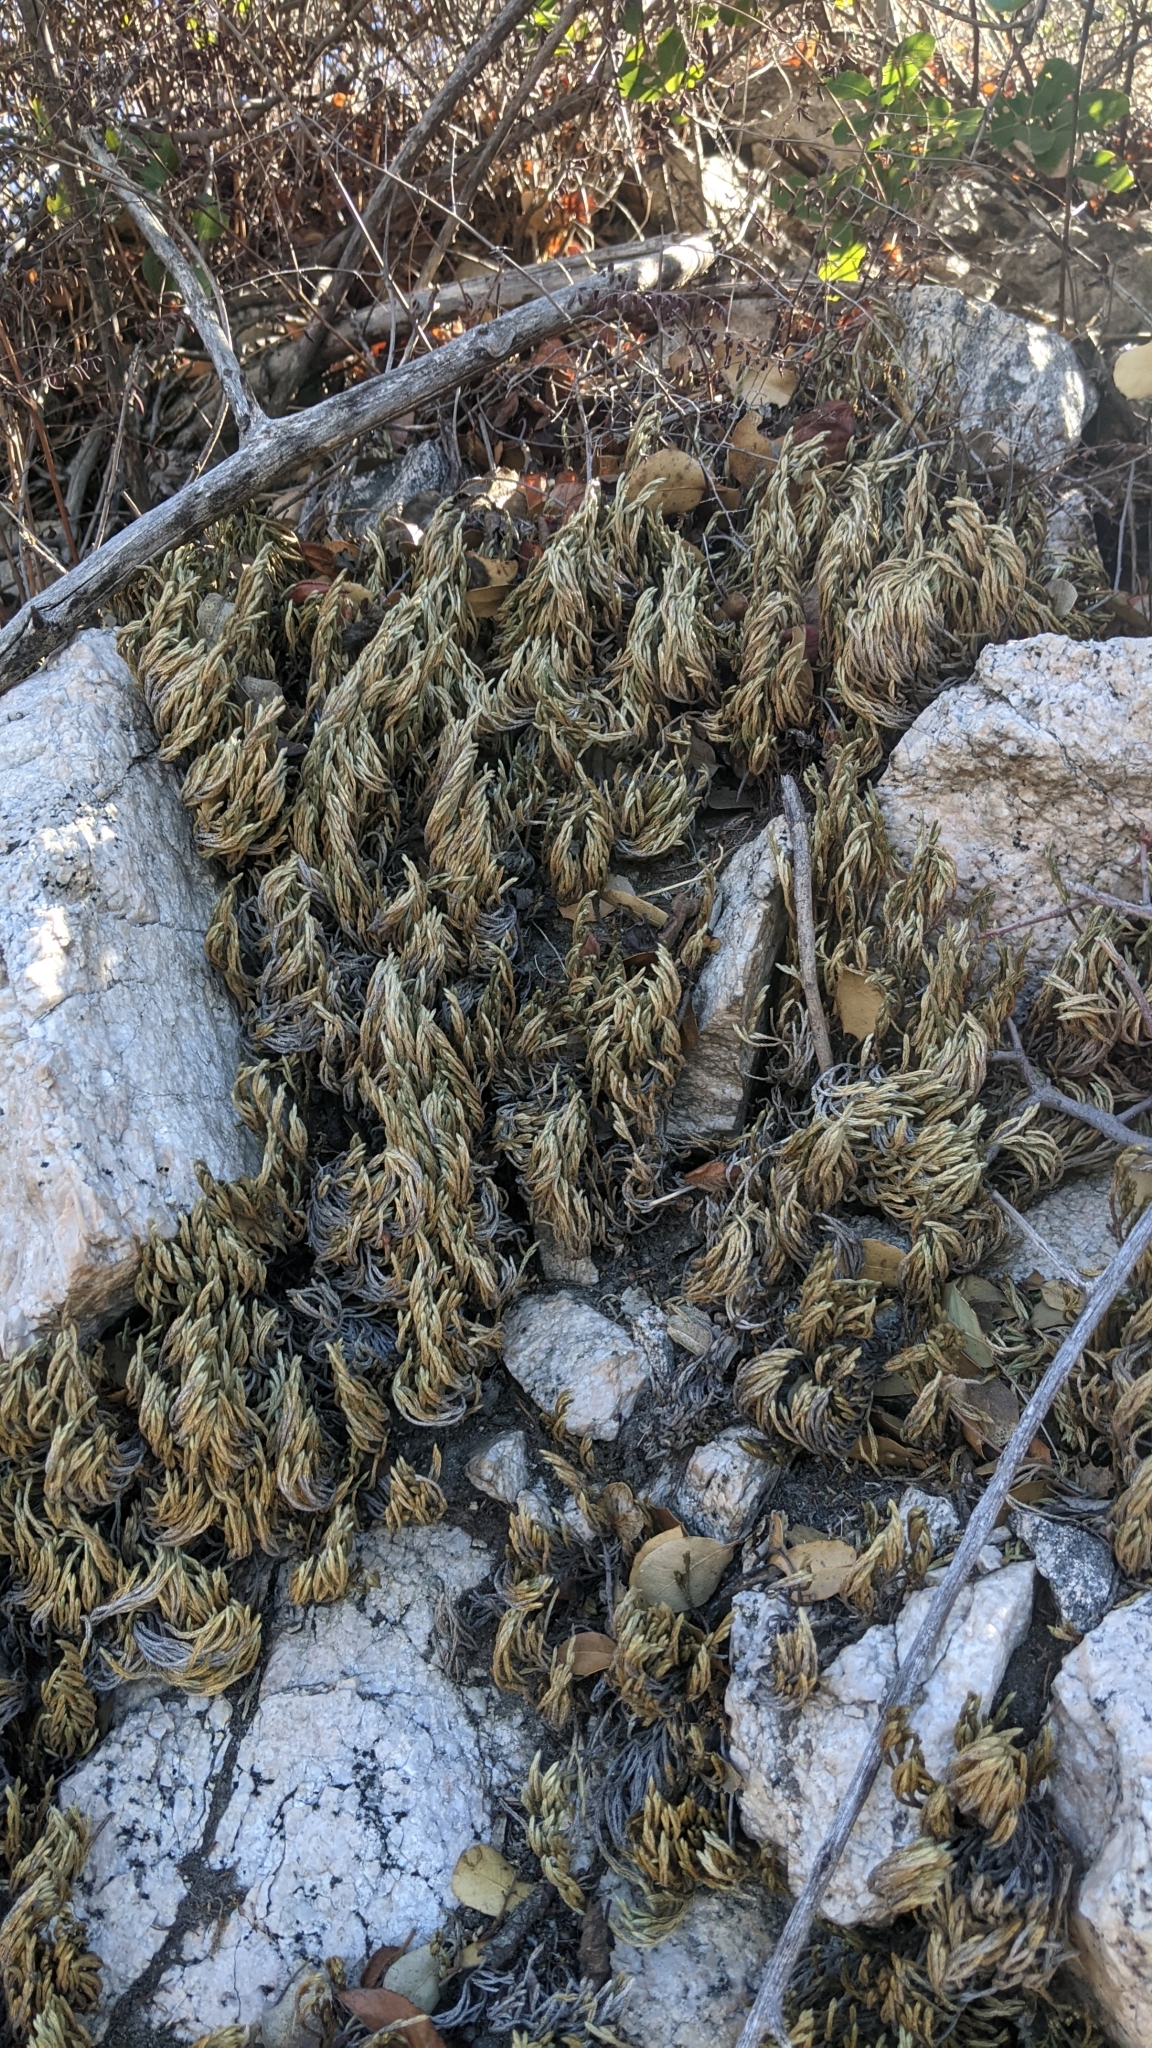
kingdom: Plantae
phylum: Tracheophyta
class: Lycopodiopsida
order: Selaginellales
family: Selaginellaceae
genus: Selaginella
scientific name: Selaginella bigelovii
